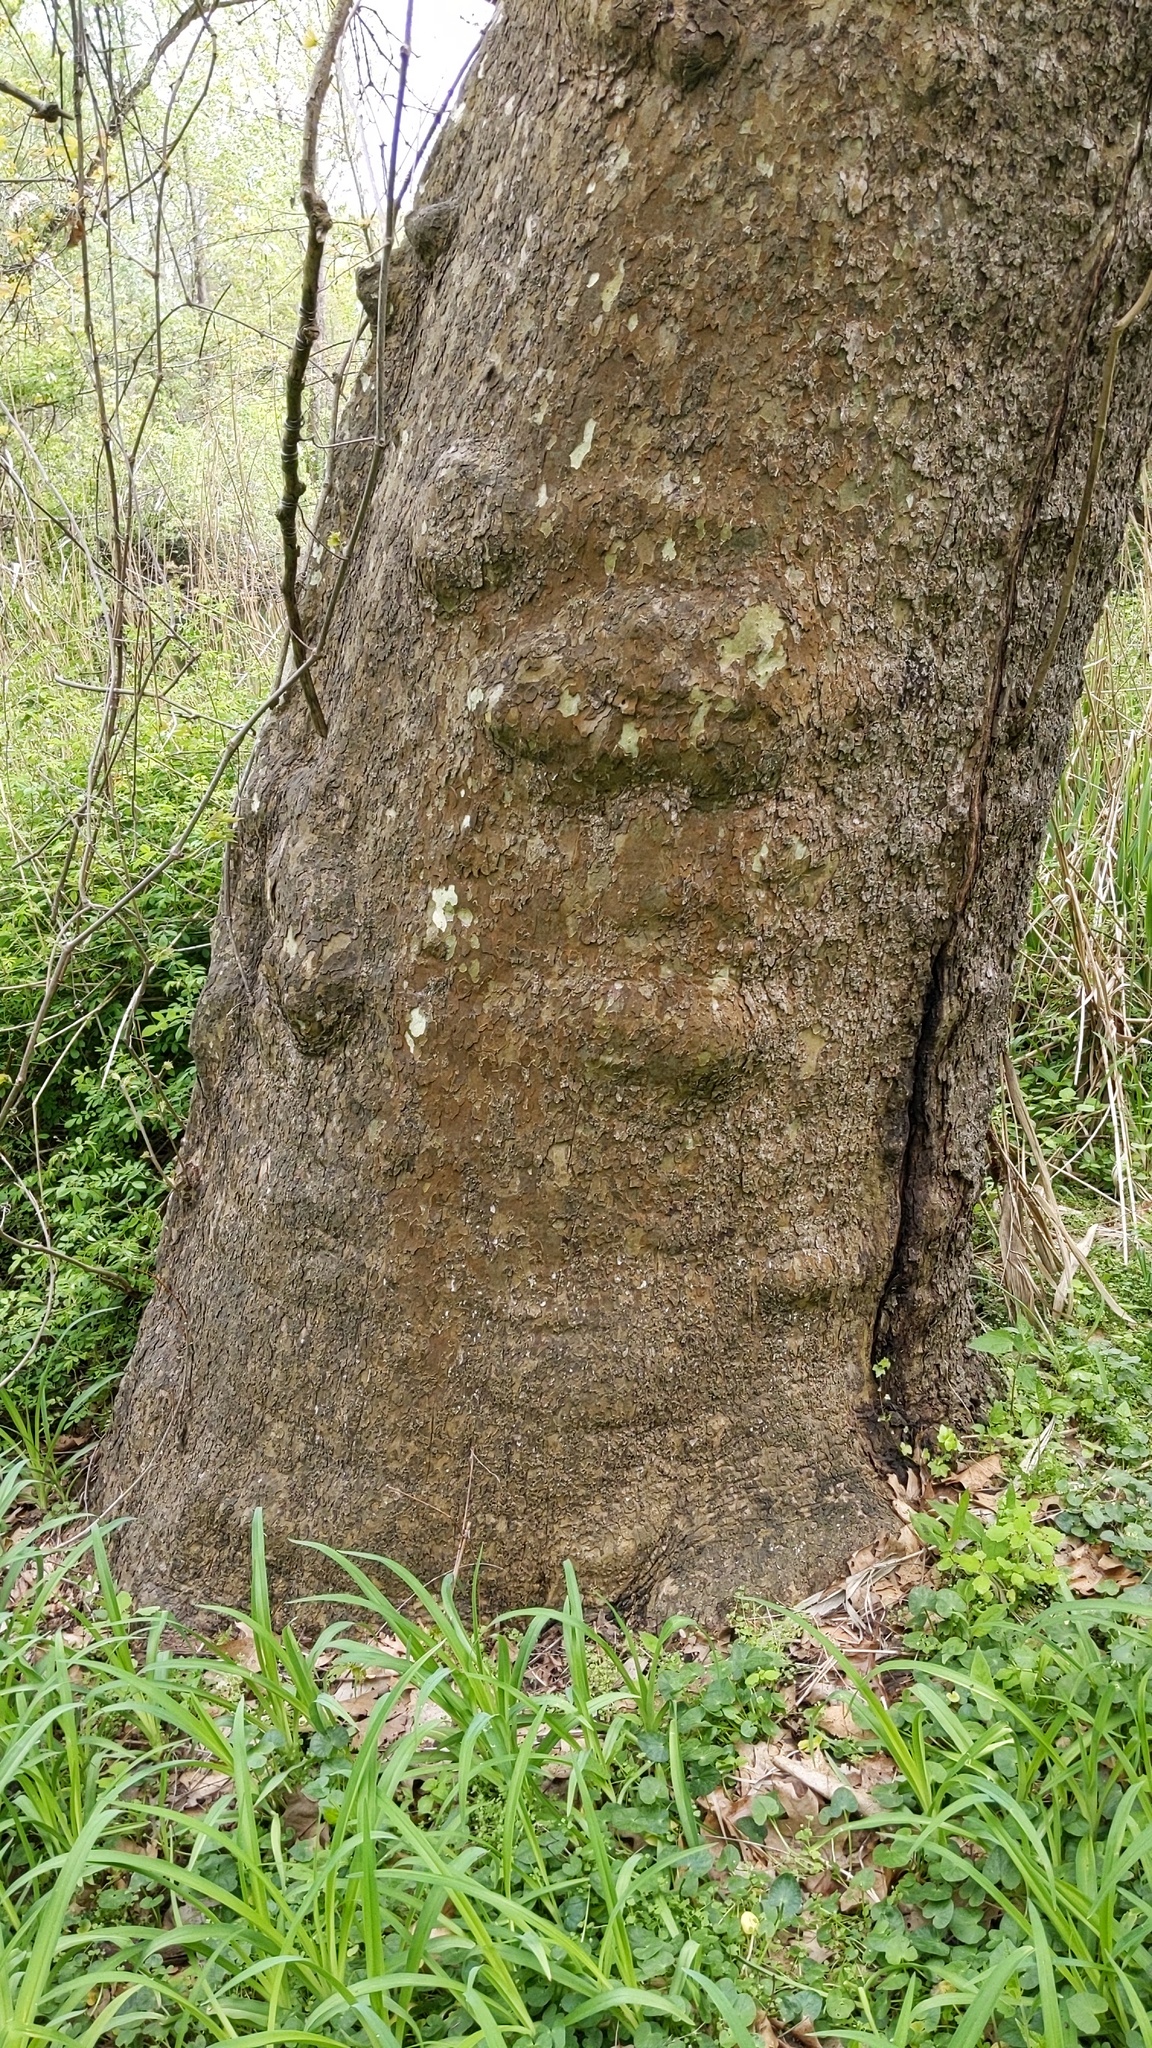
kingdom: Plantae
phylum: Tracheophyta
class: Magnoliopsida
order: Proteales
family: Platanaceae
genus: Platanus
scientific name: Platanus occidentalis
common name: American sycamore
